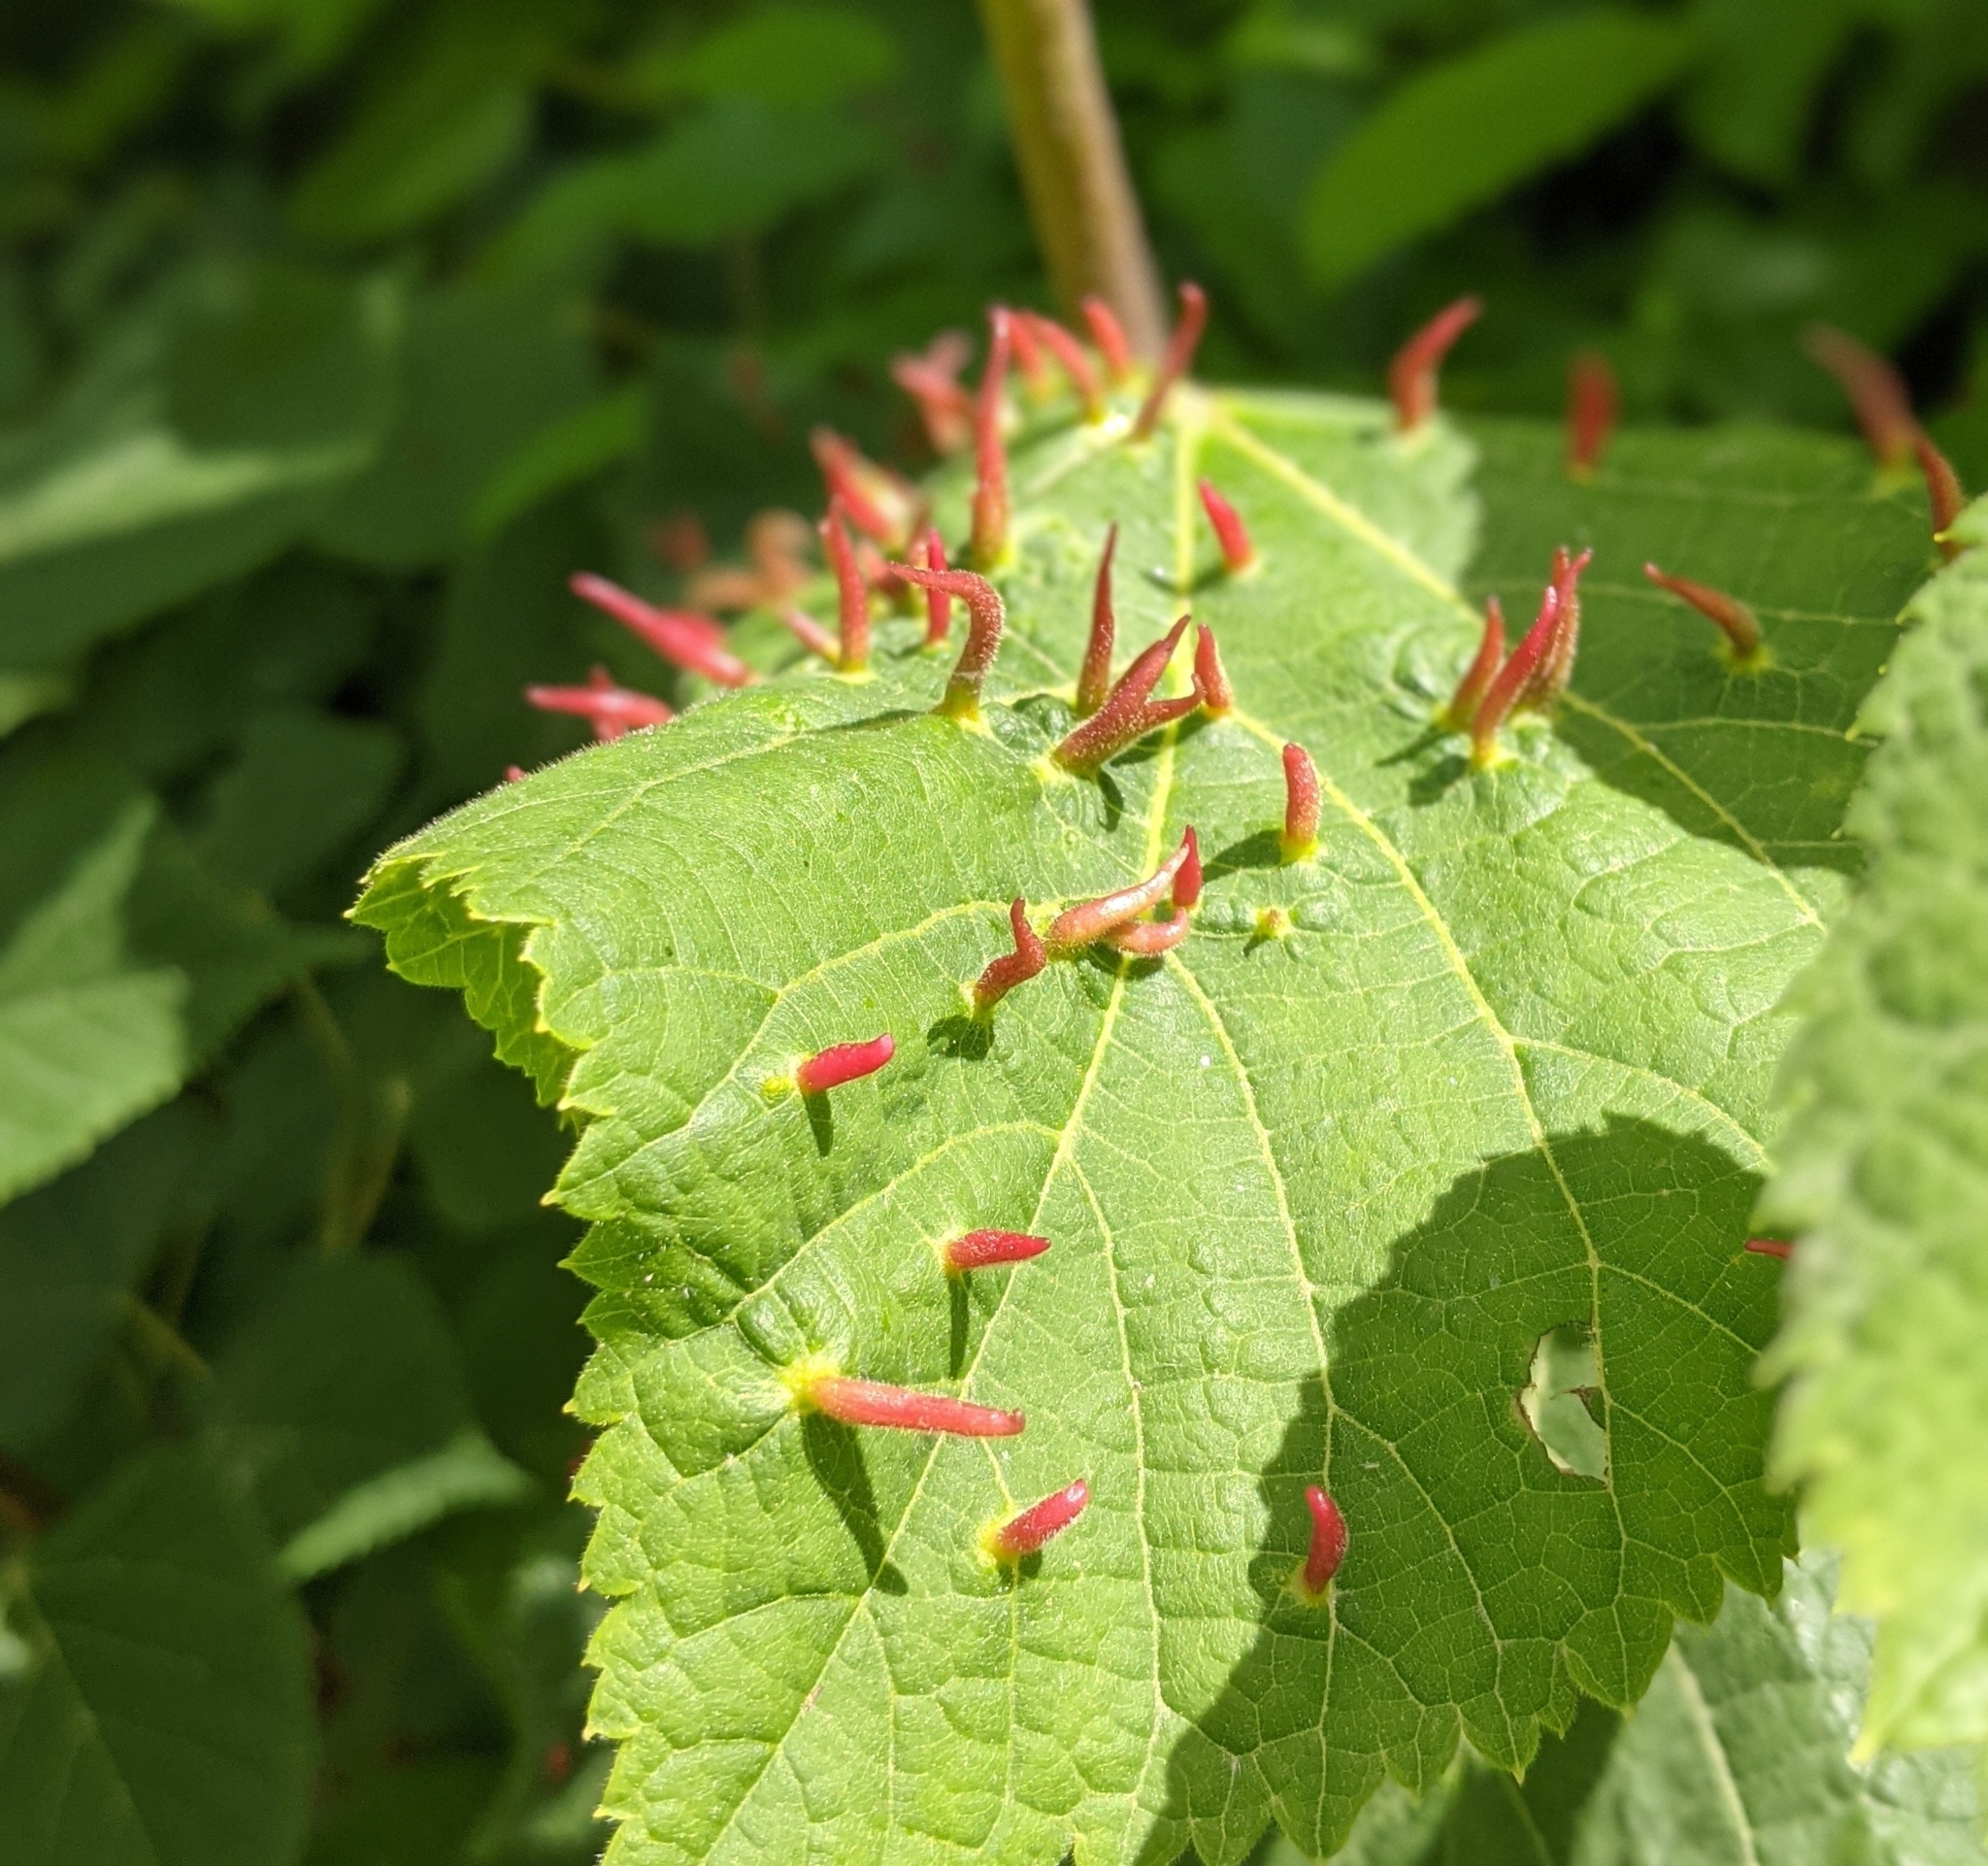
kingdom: Animalia
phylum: Arthropoda
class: Arachnida
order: Trombidiformes
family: Eriophyidae
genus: Eriophyes
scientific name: Eriophyes tiliae
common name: Red nail gall mite
